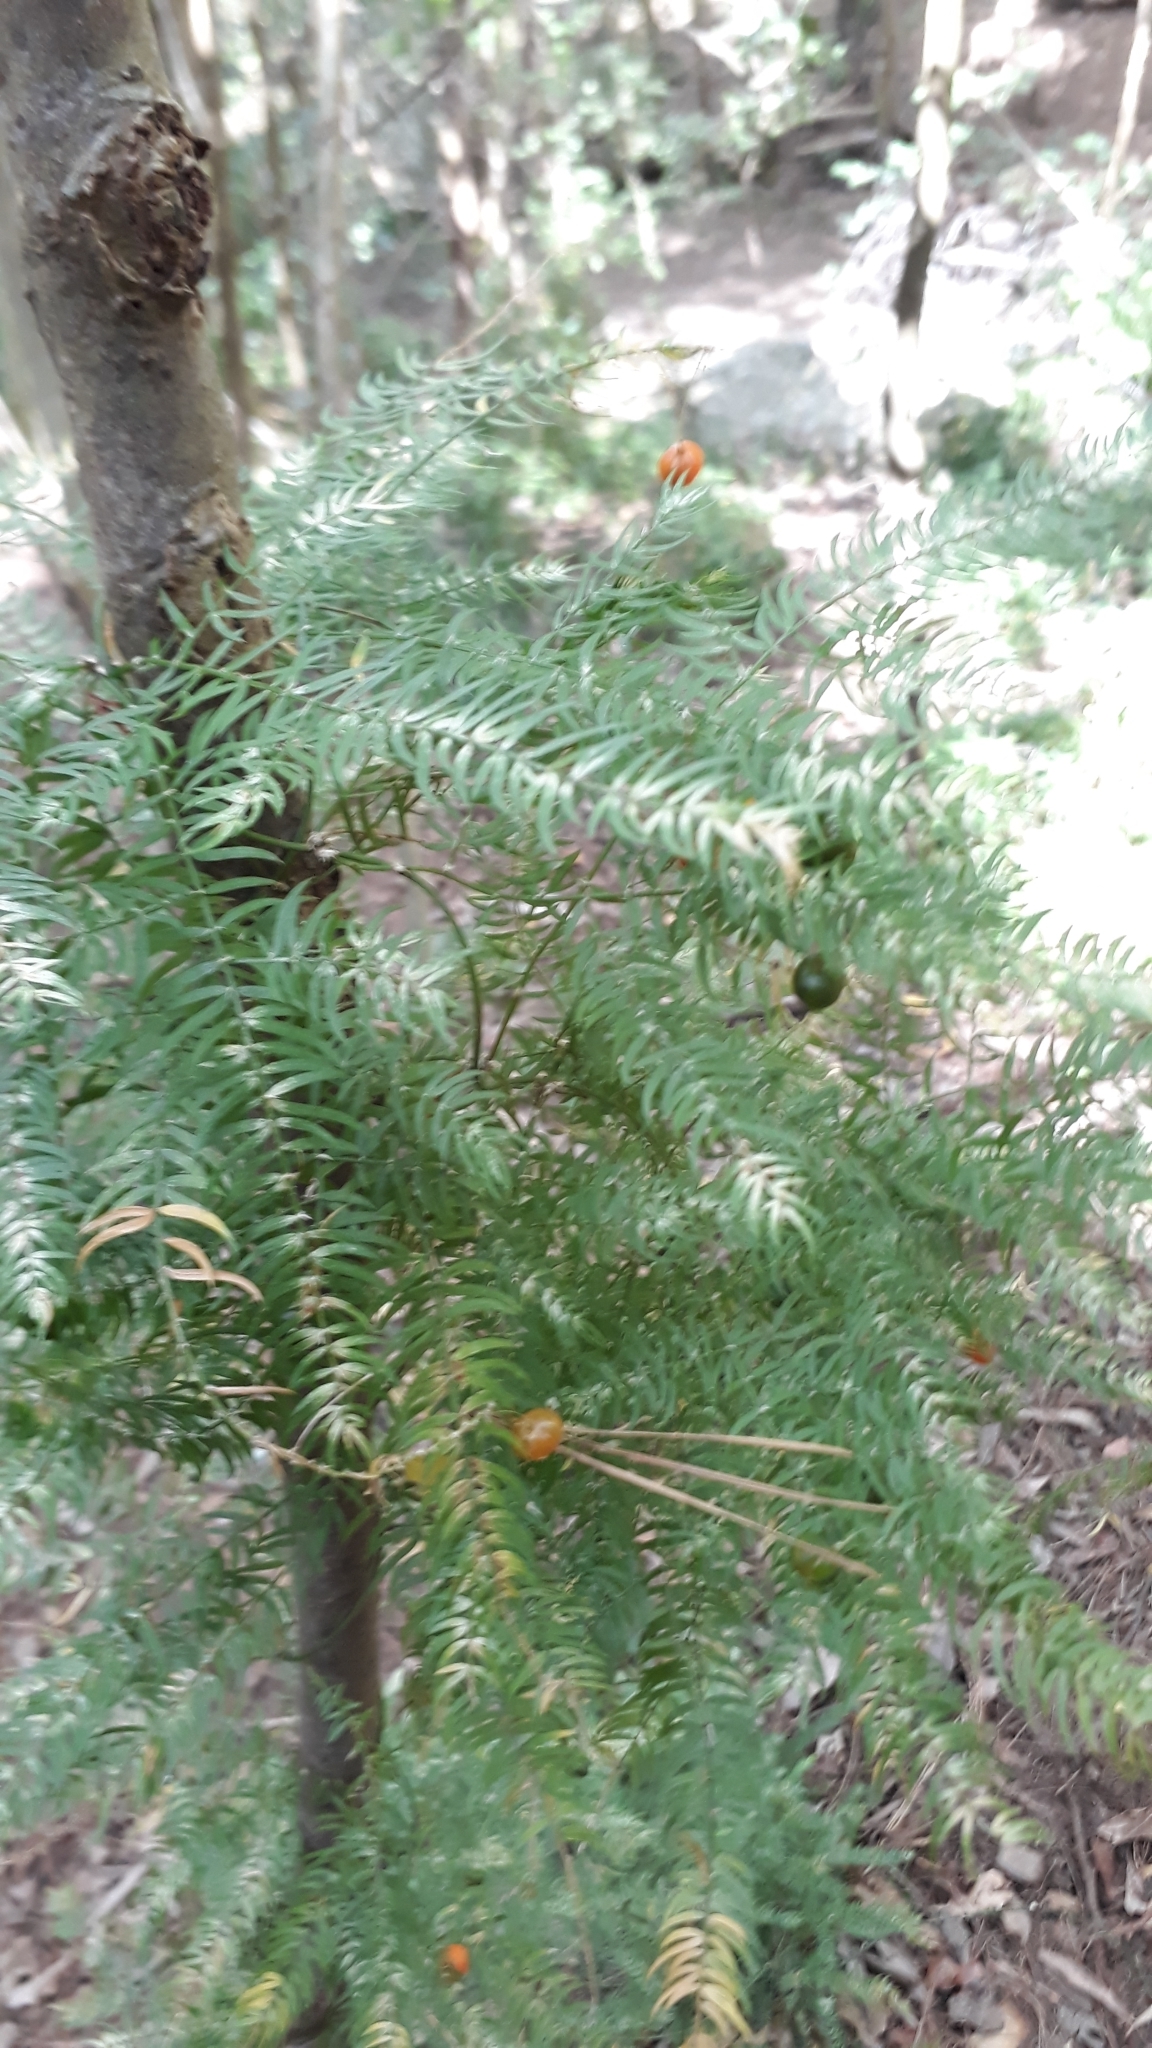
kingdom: Plantae
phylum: Tracheophyta
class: Liliopsida
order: Asparagales
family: Asparagaceae
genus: Asparagus
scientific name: Asparagus scandens
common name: Asparagus-fern
